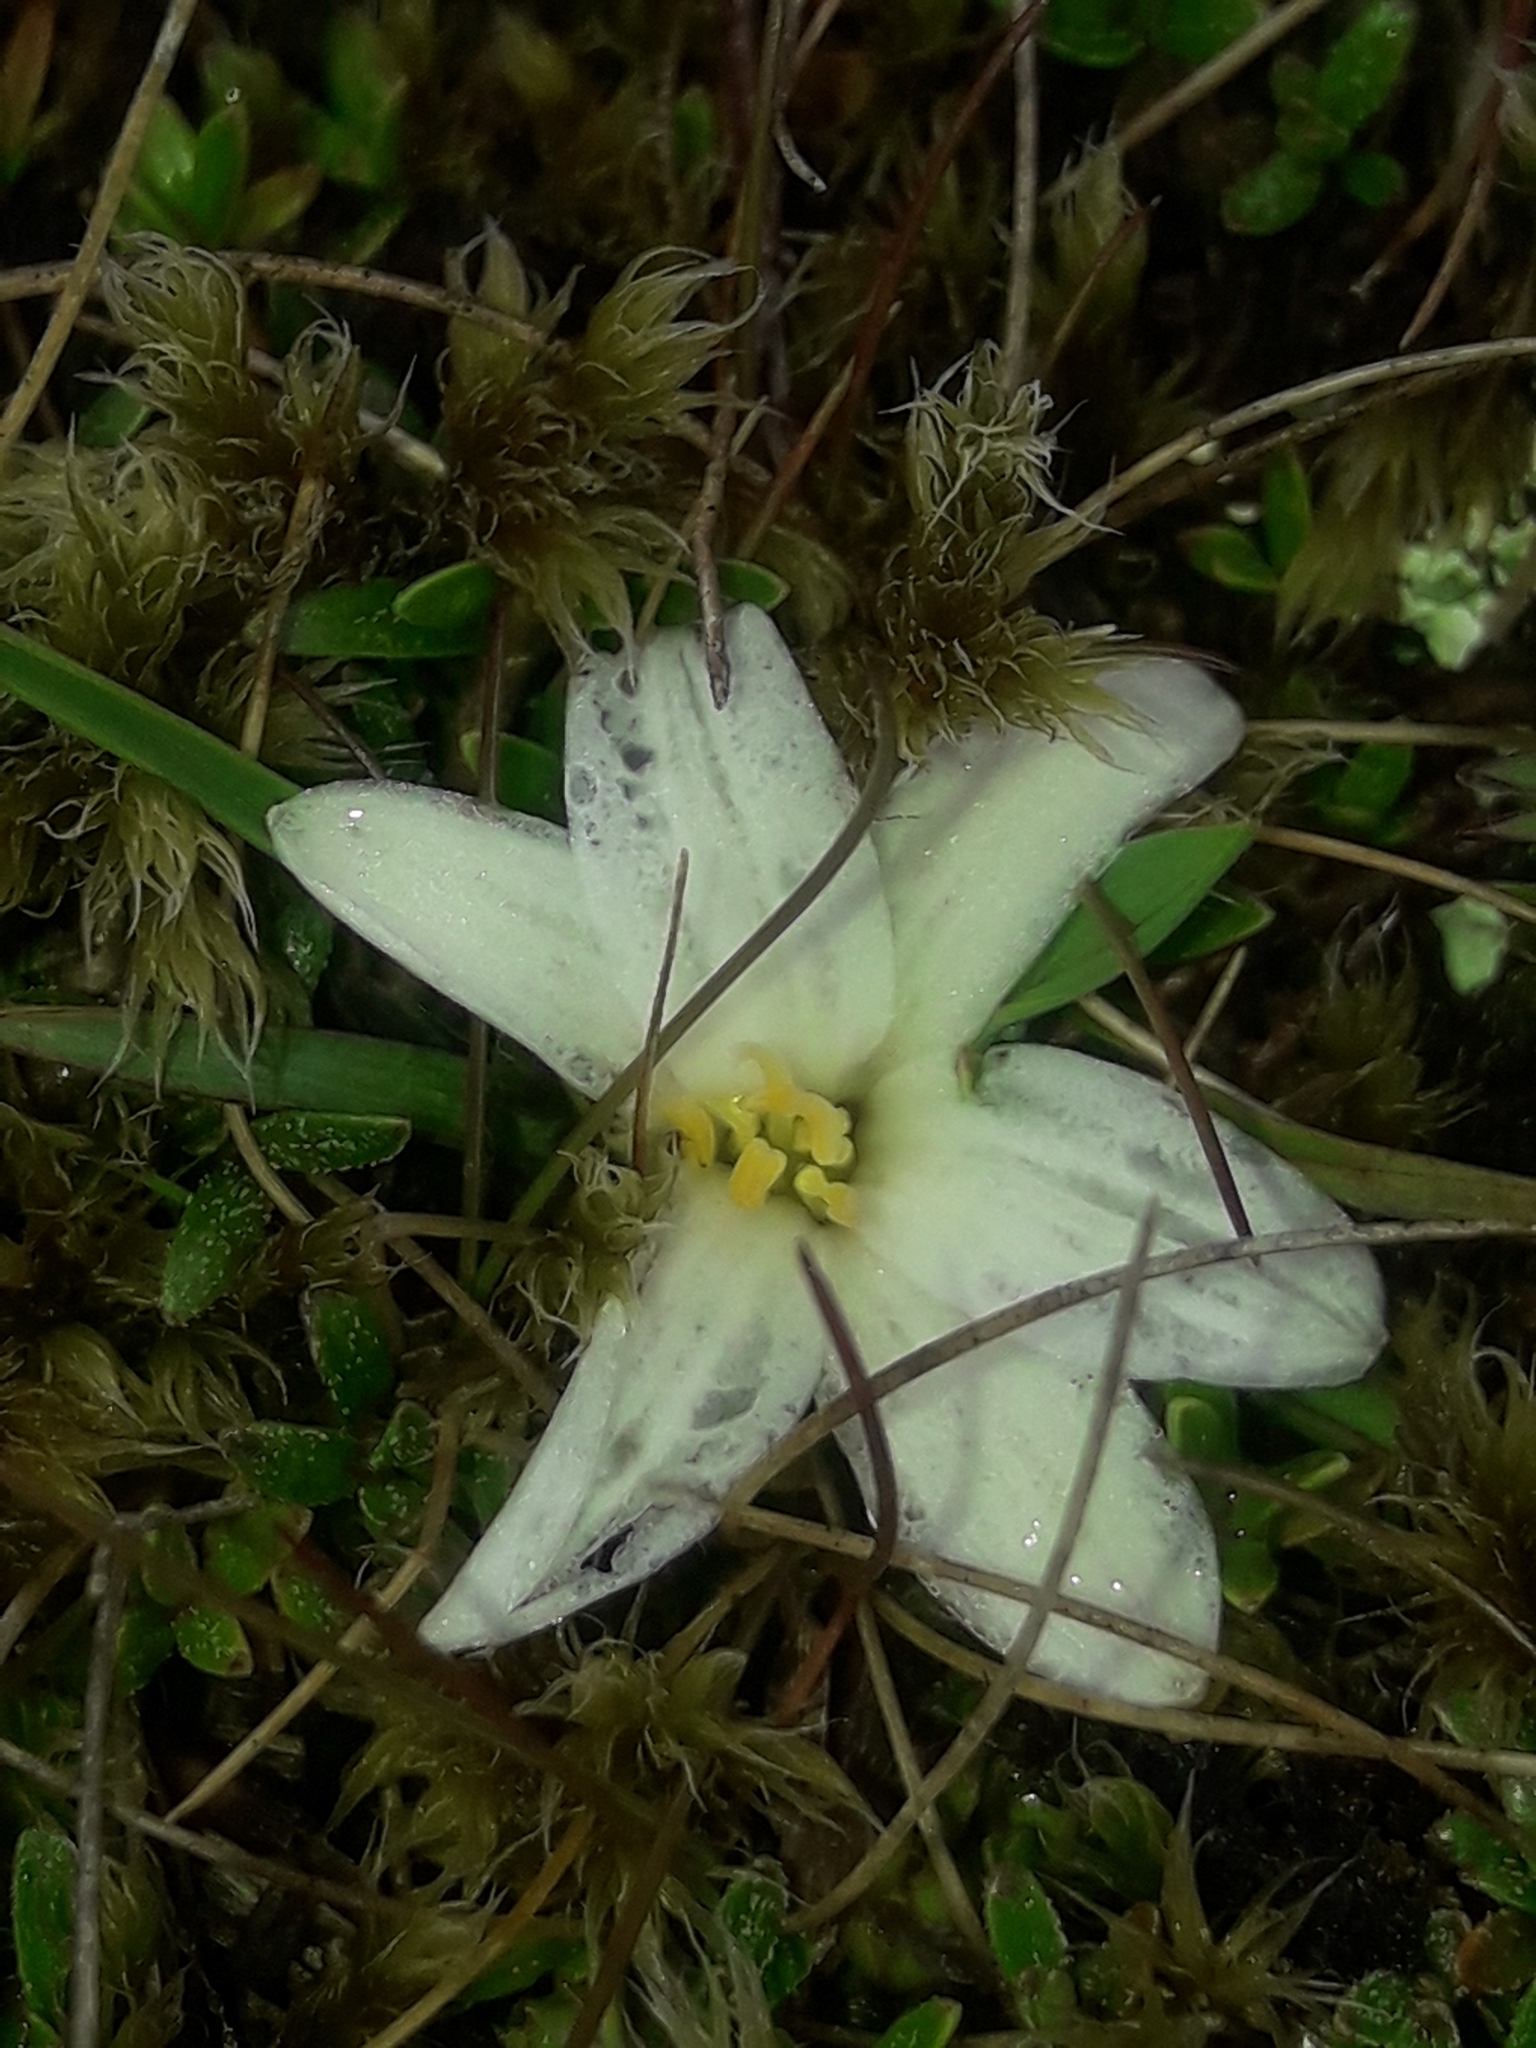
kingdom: Plantae
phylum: Tracheophyta
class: Liliopsida
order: Asparagales
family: Asphodelaceae
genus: Herpolirion
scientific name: Herpolirion novae-zelandiae
